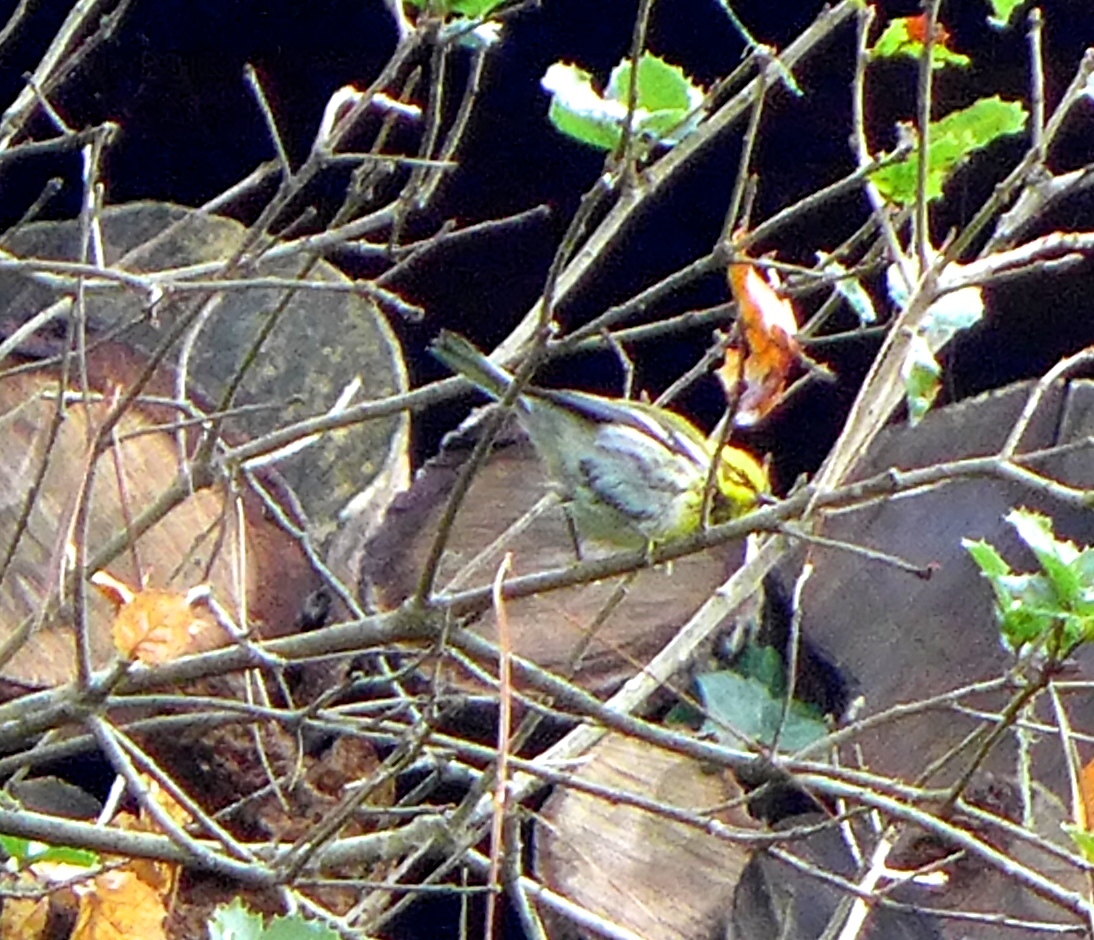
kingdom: Animalia
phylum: Chordata
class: Aves
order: Passeriformes
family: Parulidae
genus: Setophaga
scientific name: Setophaga townsendi
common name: Townsend's warbler
